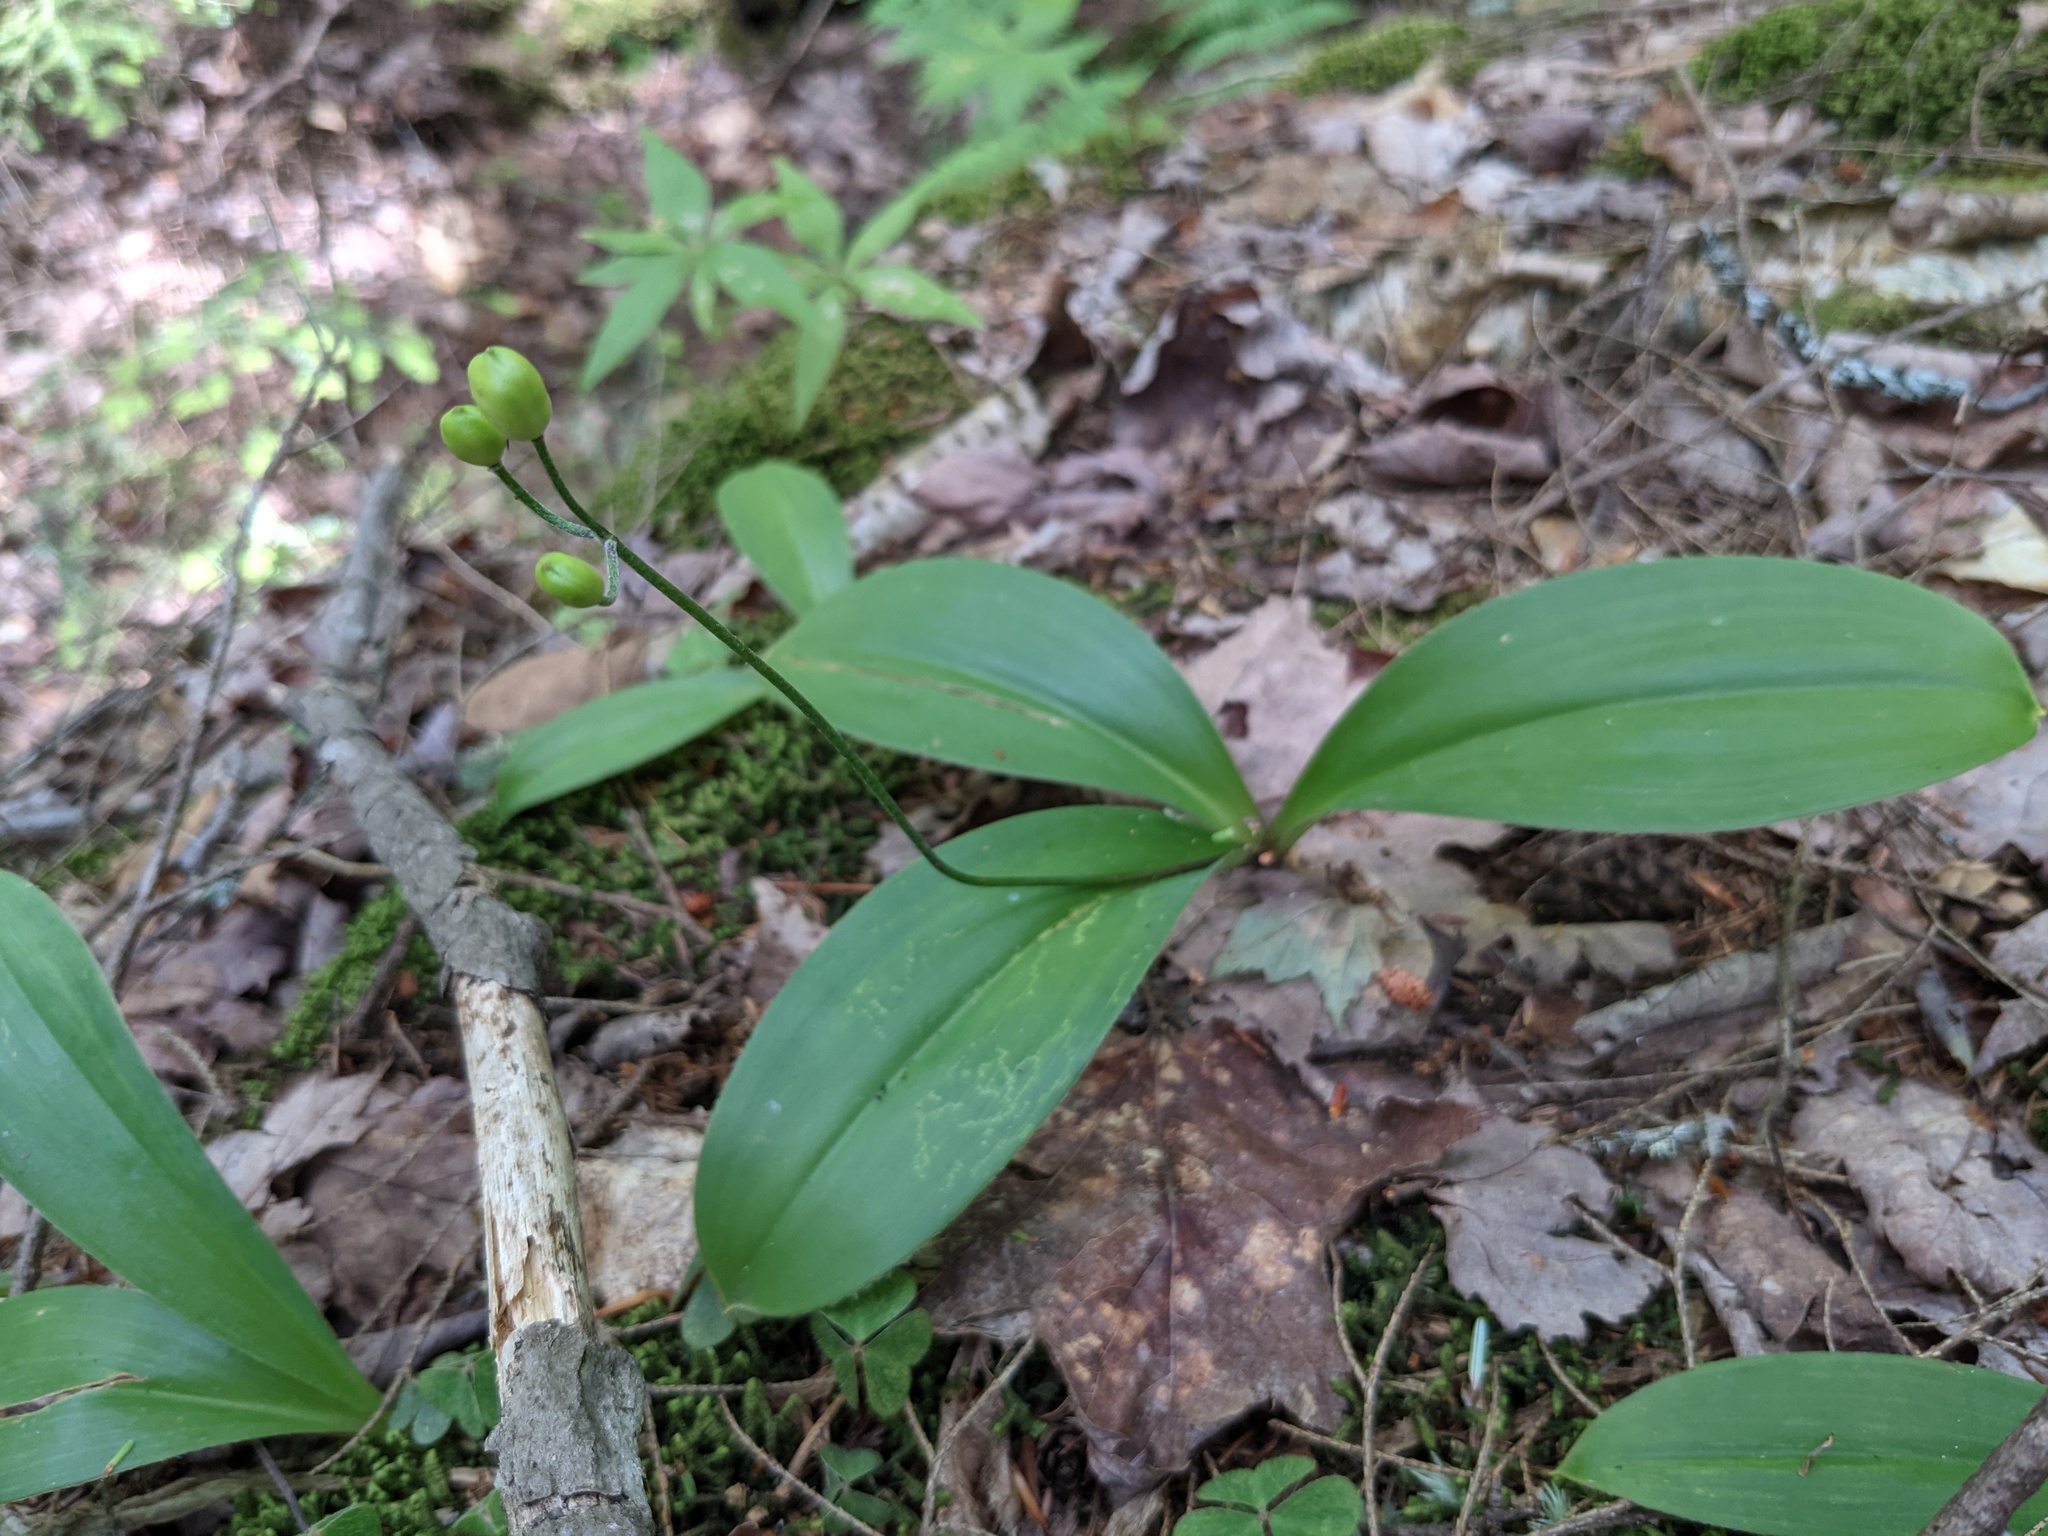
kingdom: Plantae
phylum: Tracheophyta
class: Liliopsida
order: Liliales
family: Liliaceae
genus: Clintonia
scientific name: Clintonia borealis
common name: Yellow clintonia
